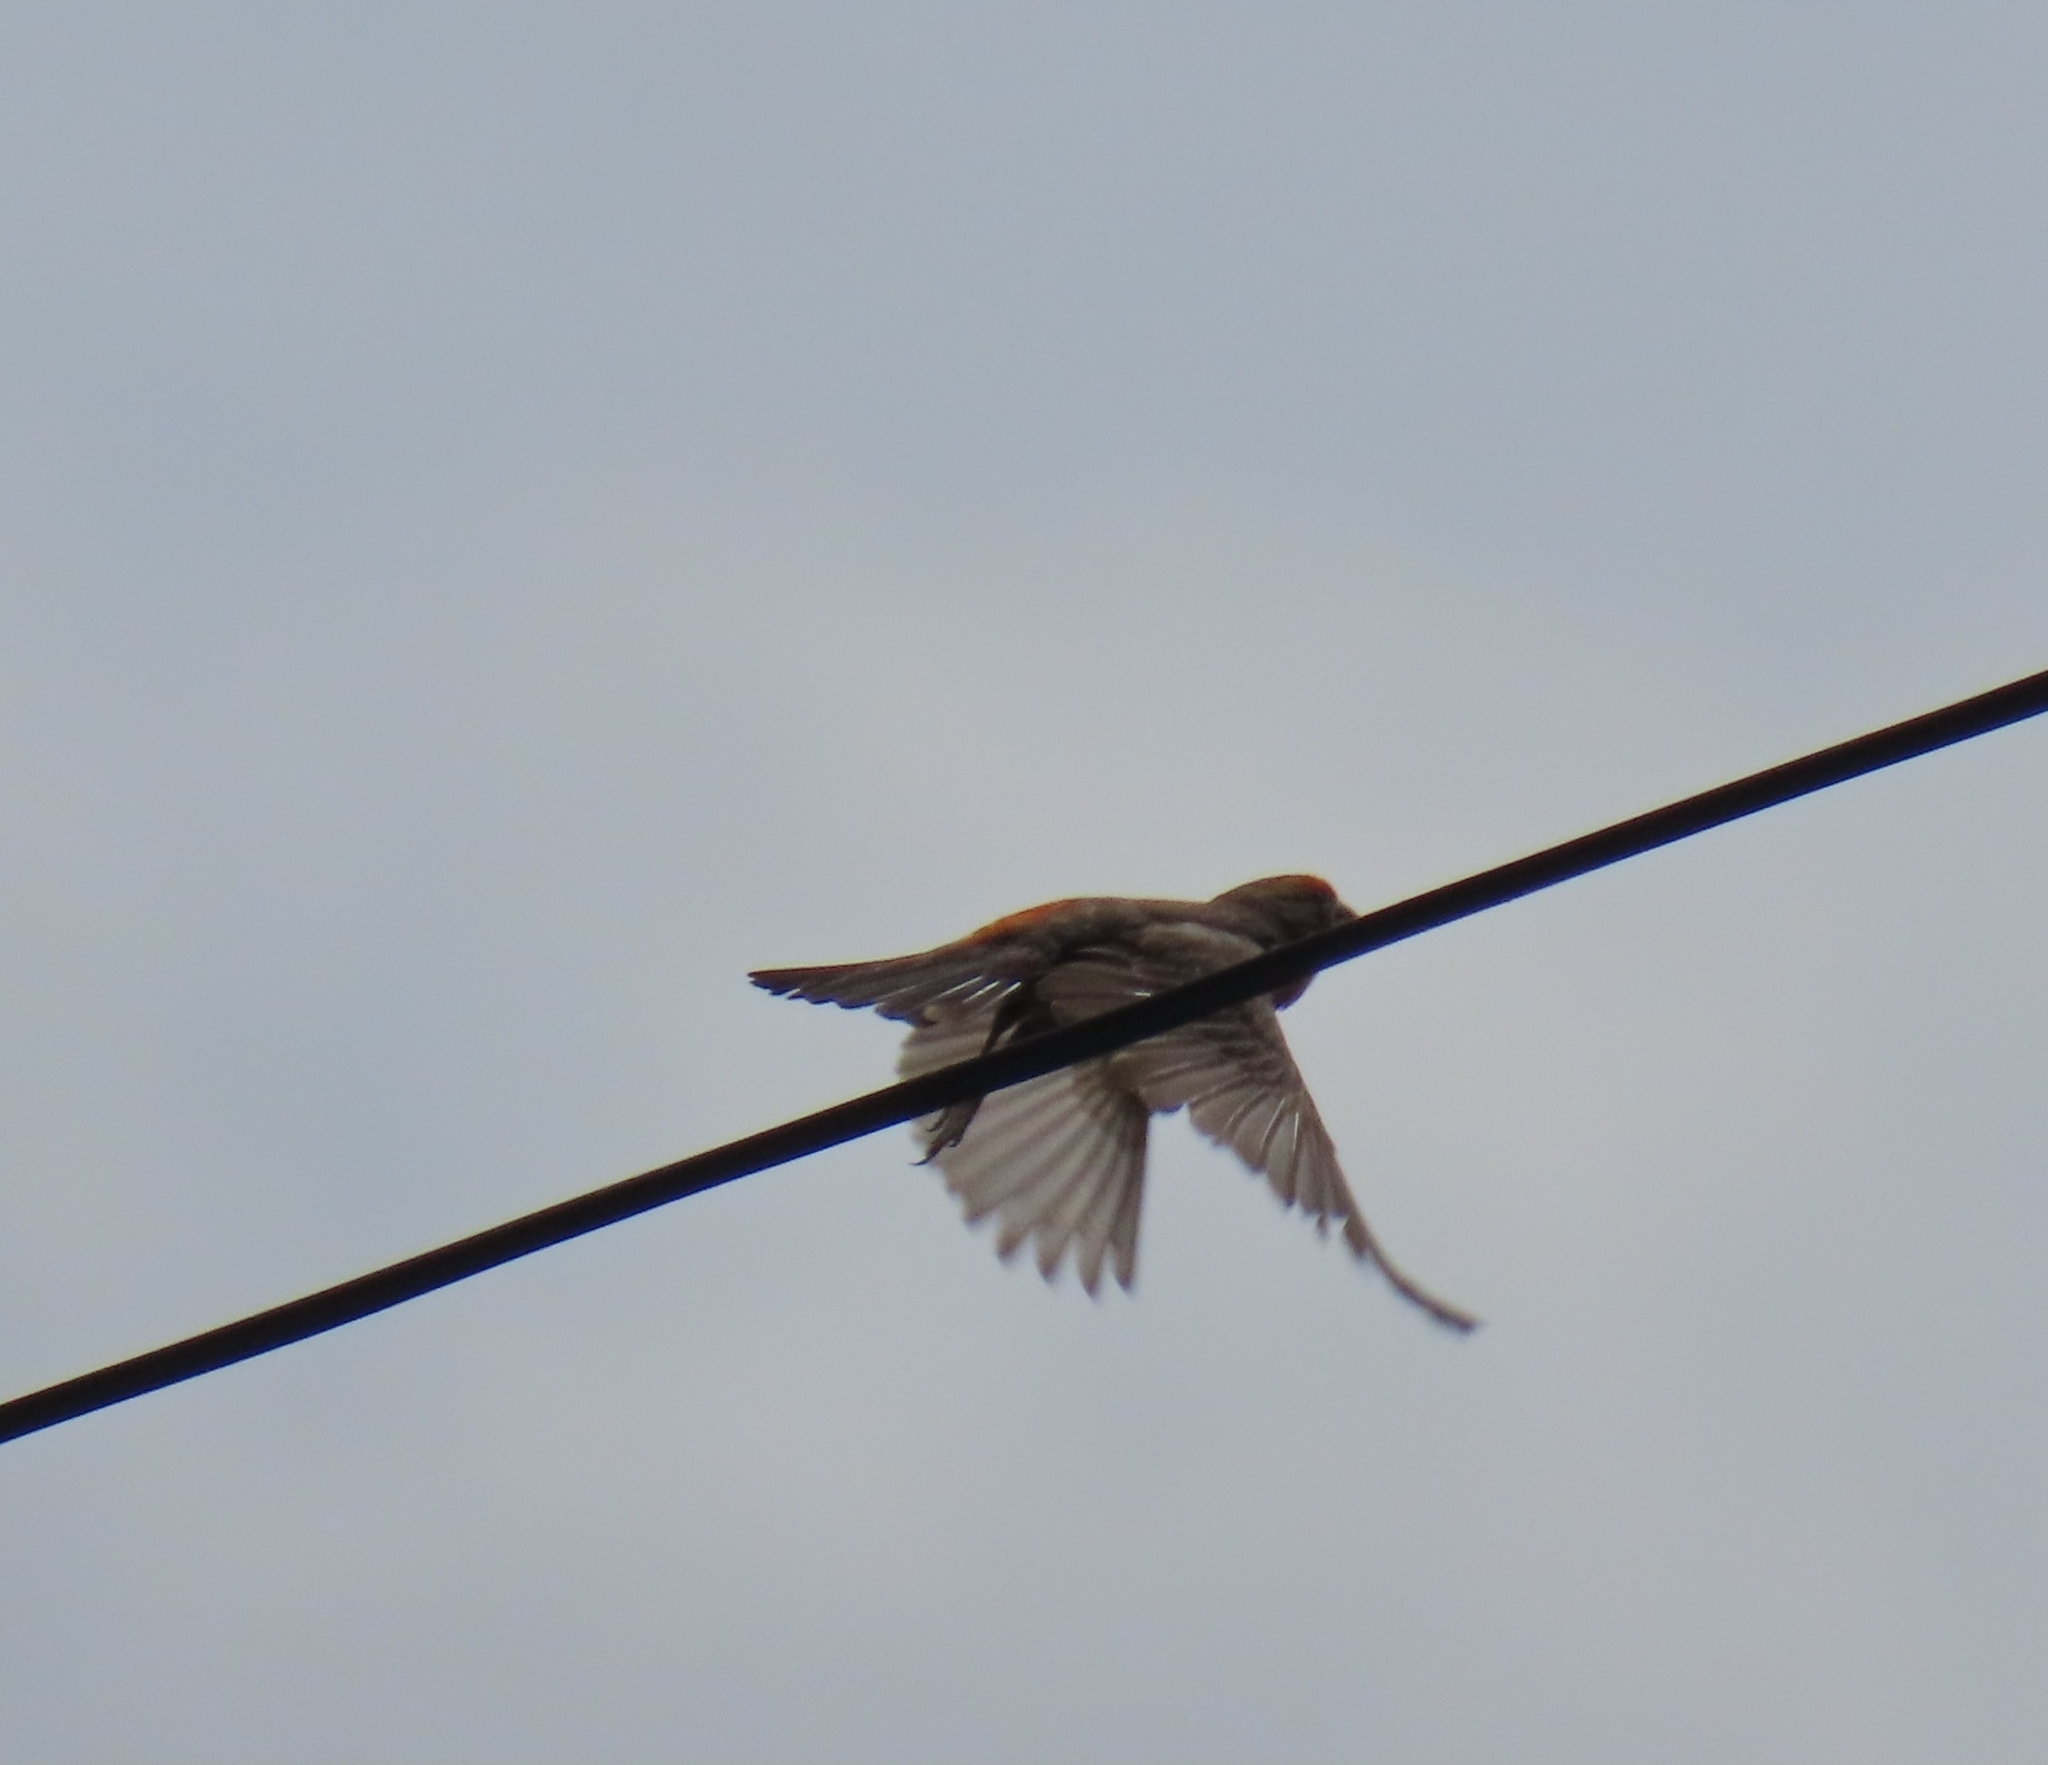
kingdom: Animalia
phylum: Chordata
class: Aves
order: Passeriformes
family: Fringillidae
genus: Haemorhous
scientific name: Haemorhous mexicanus
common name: House finch
